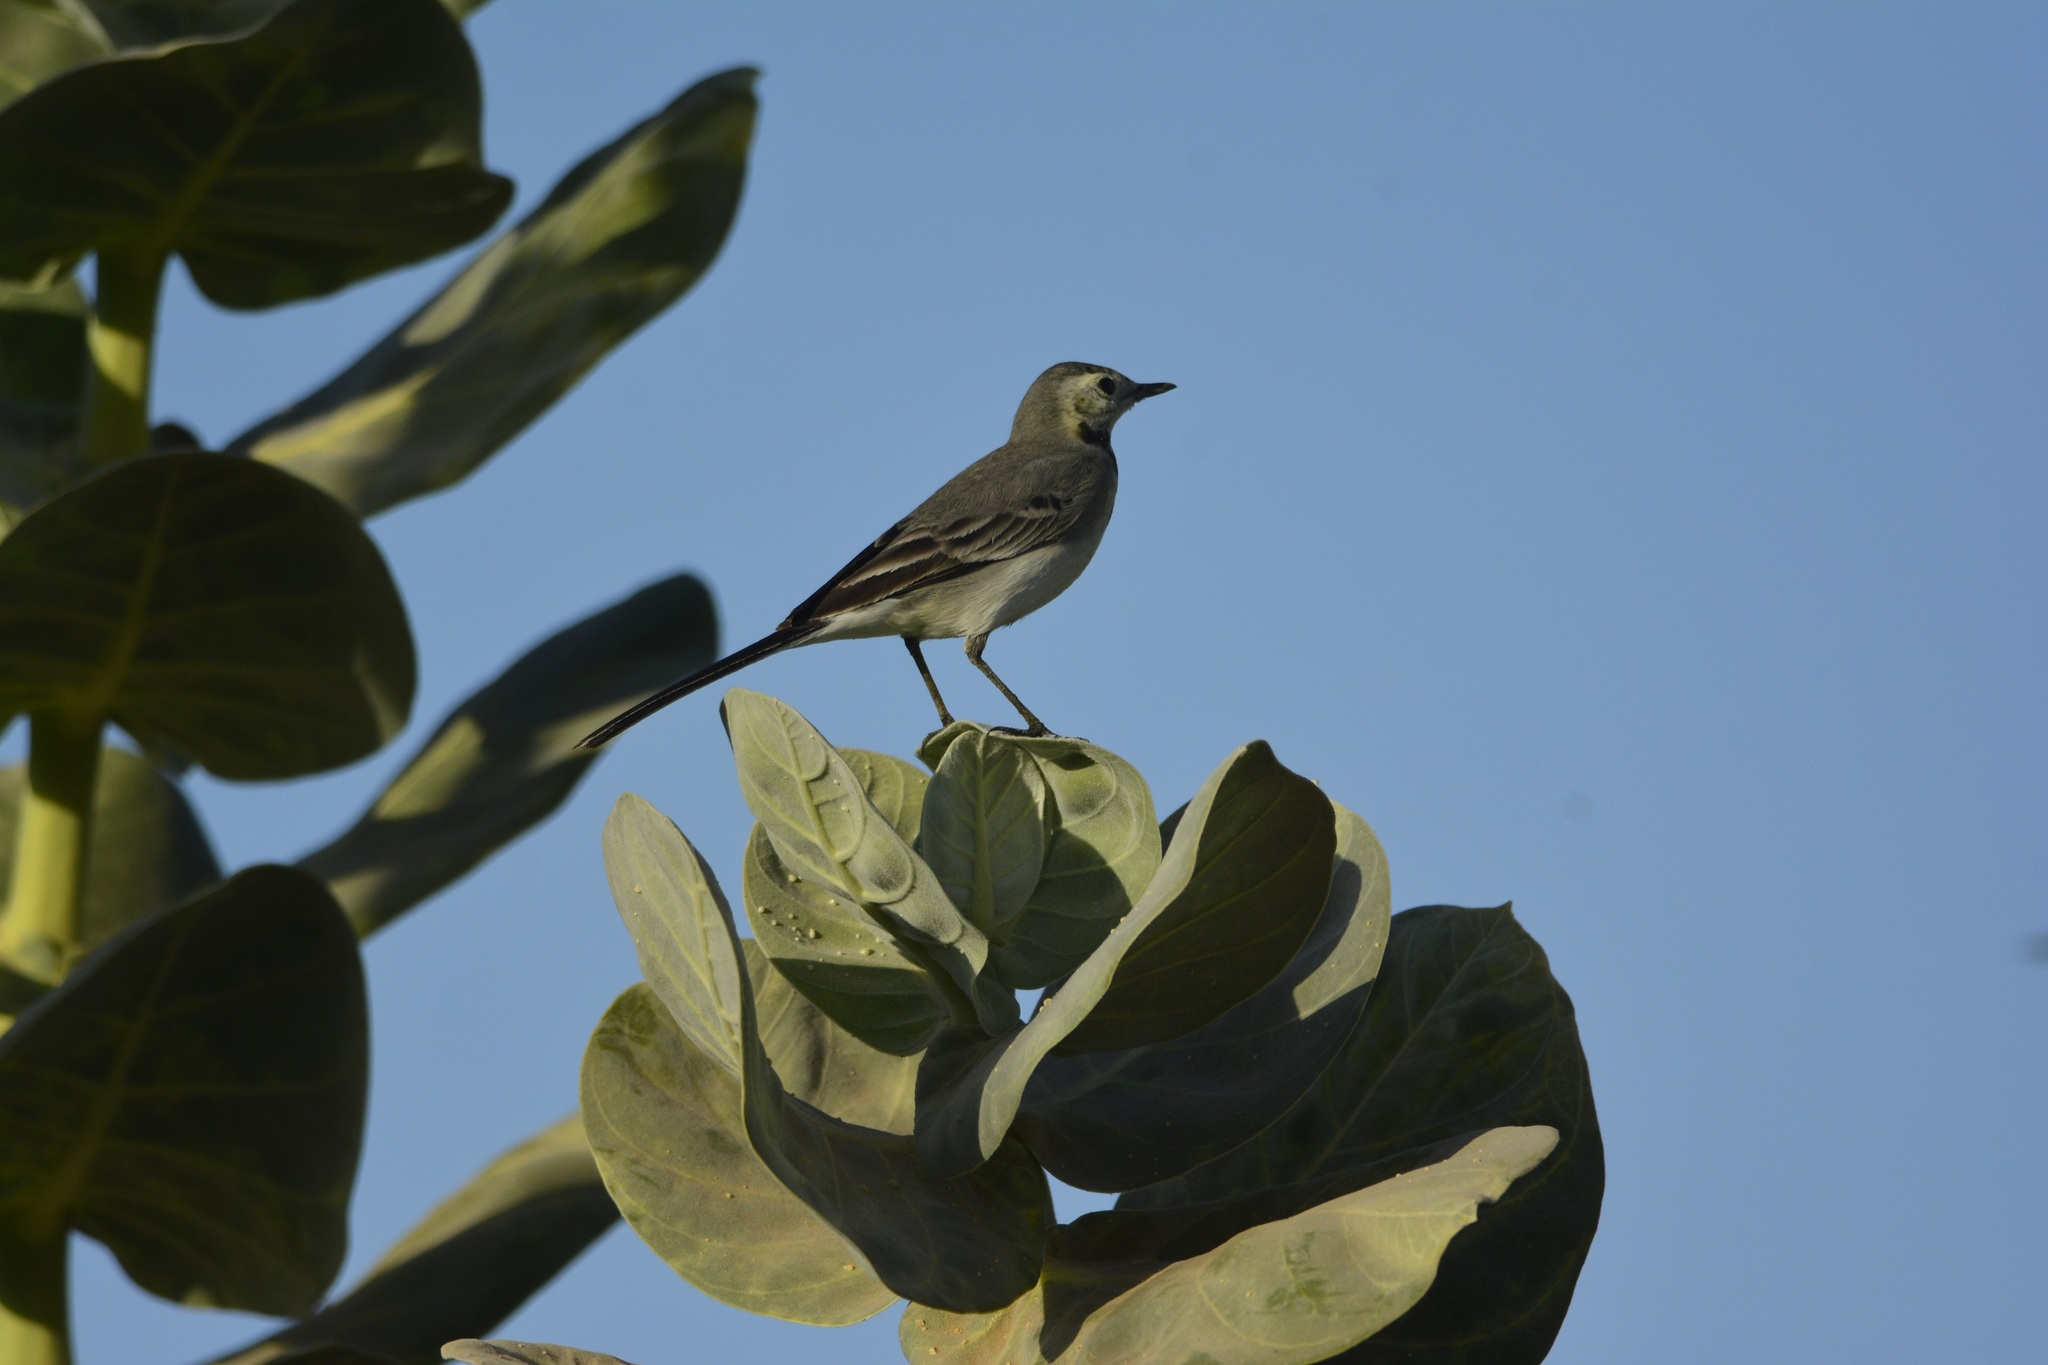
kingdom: Animalia
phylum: Chordata
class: Aves
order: Passeriformes
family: Motacillidae
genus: Motacilla
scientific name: Motacilla alba
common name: White wagtail
